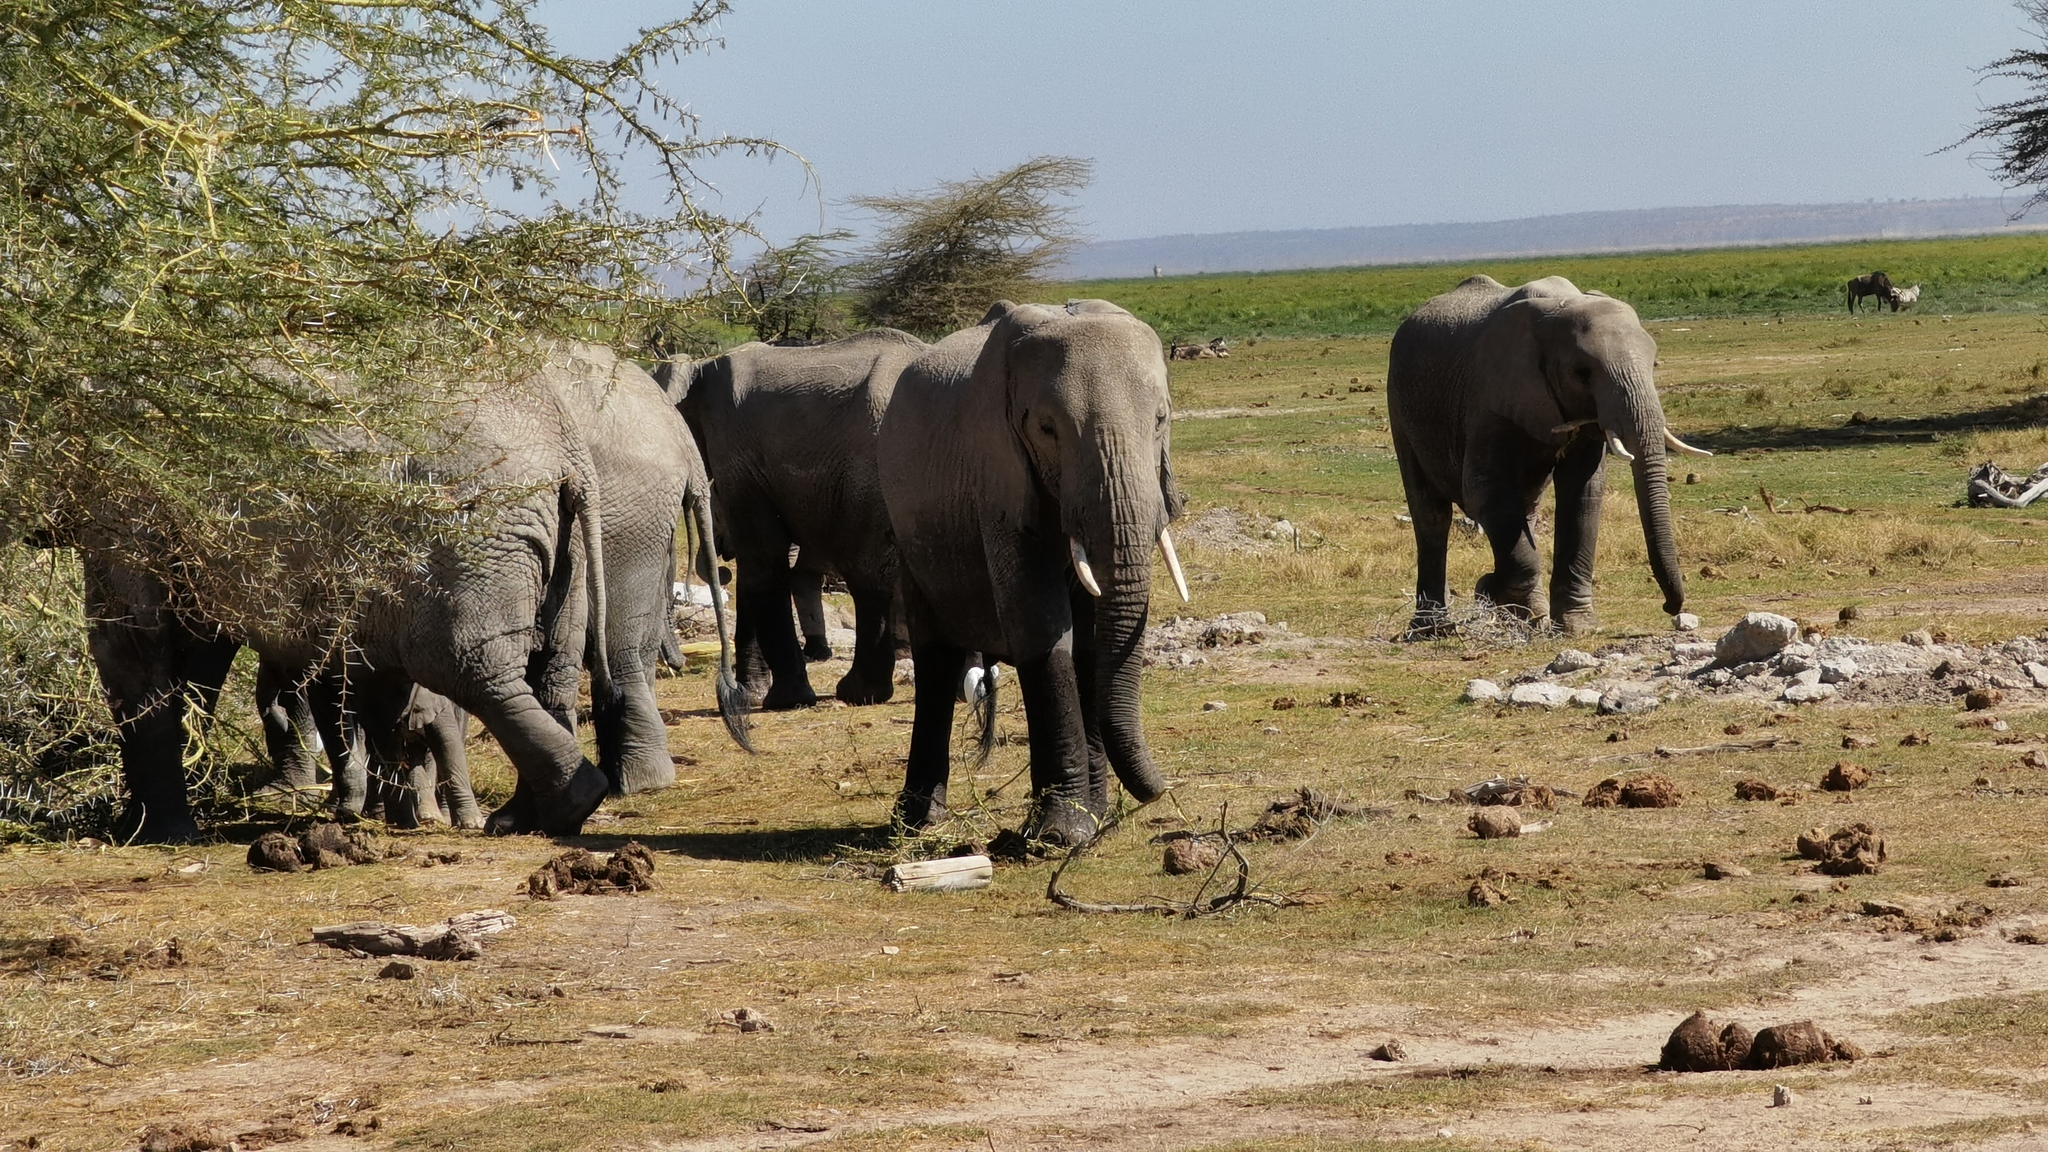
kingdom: Animalia
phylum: Chordata
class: Mammalia
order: Proboscidea
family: Elephantidae
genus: Loxodonta
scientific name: Loxodonta africana
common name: African elephant
